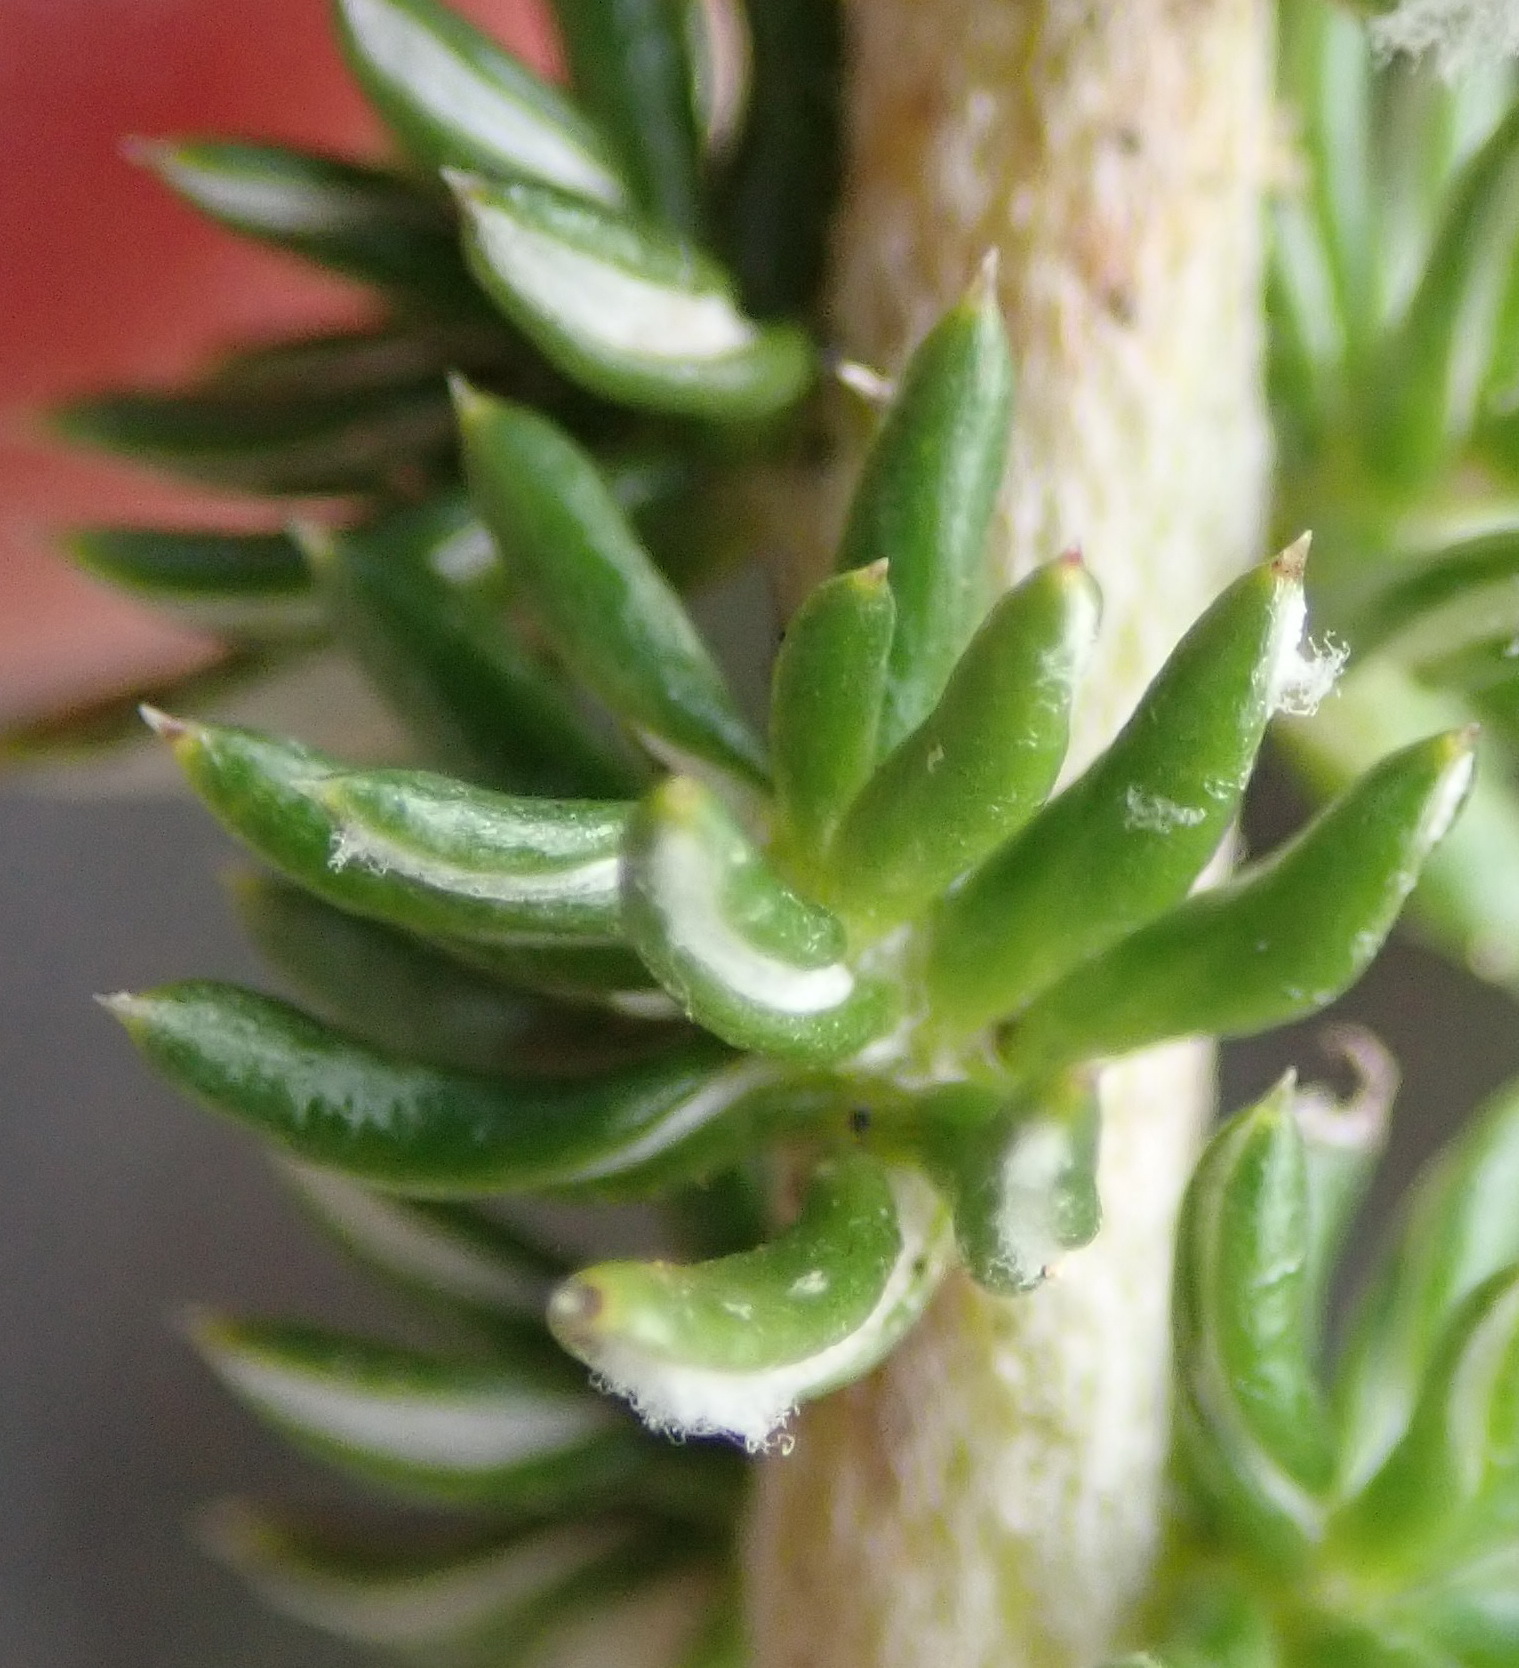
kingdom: Plantae
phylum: Tracheophyta
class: Magnoliopsida
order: Asterales
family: Asteraceae
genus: Metalasia
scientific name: Metalasia luteola
